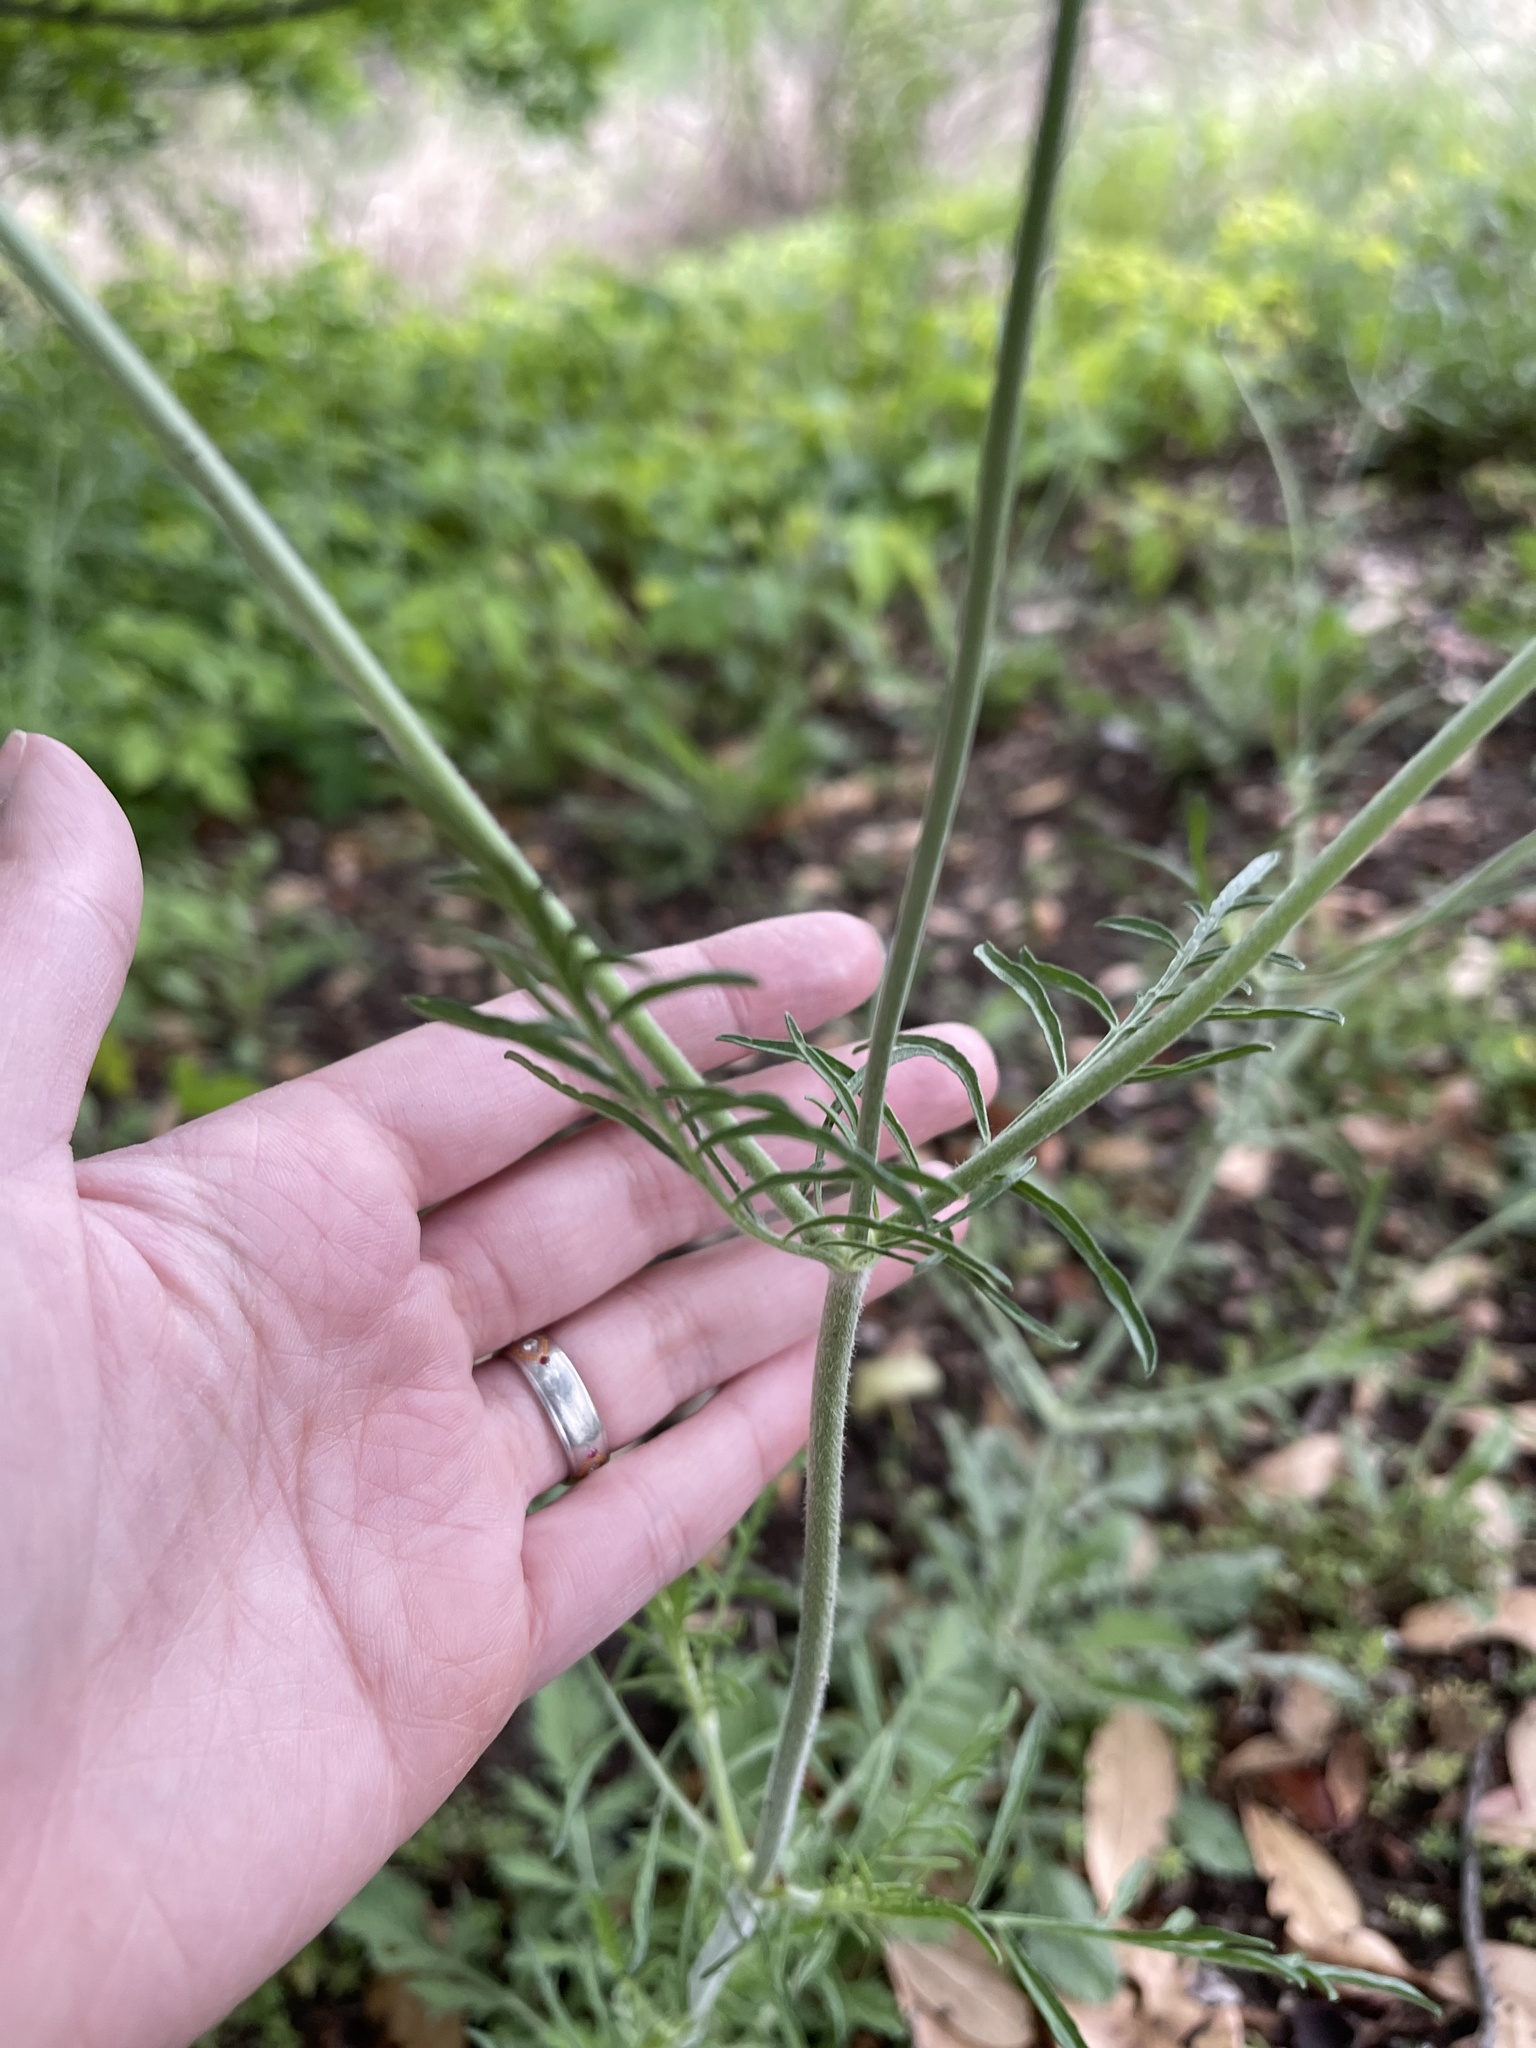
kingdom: Plantae
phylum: Tracheophyta
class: Magnoliopsida
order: Dipsacales
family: Caprifoliaceae
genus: Sixalix
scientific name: Sixalix atropurpurea
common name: Sweet scabious
